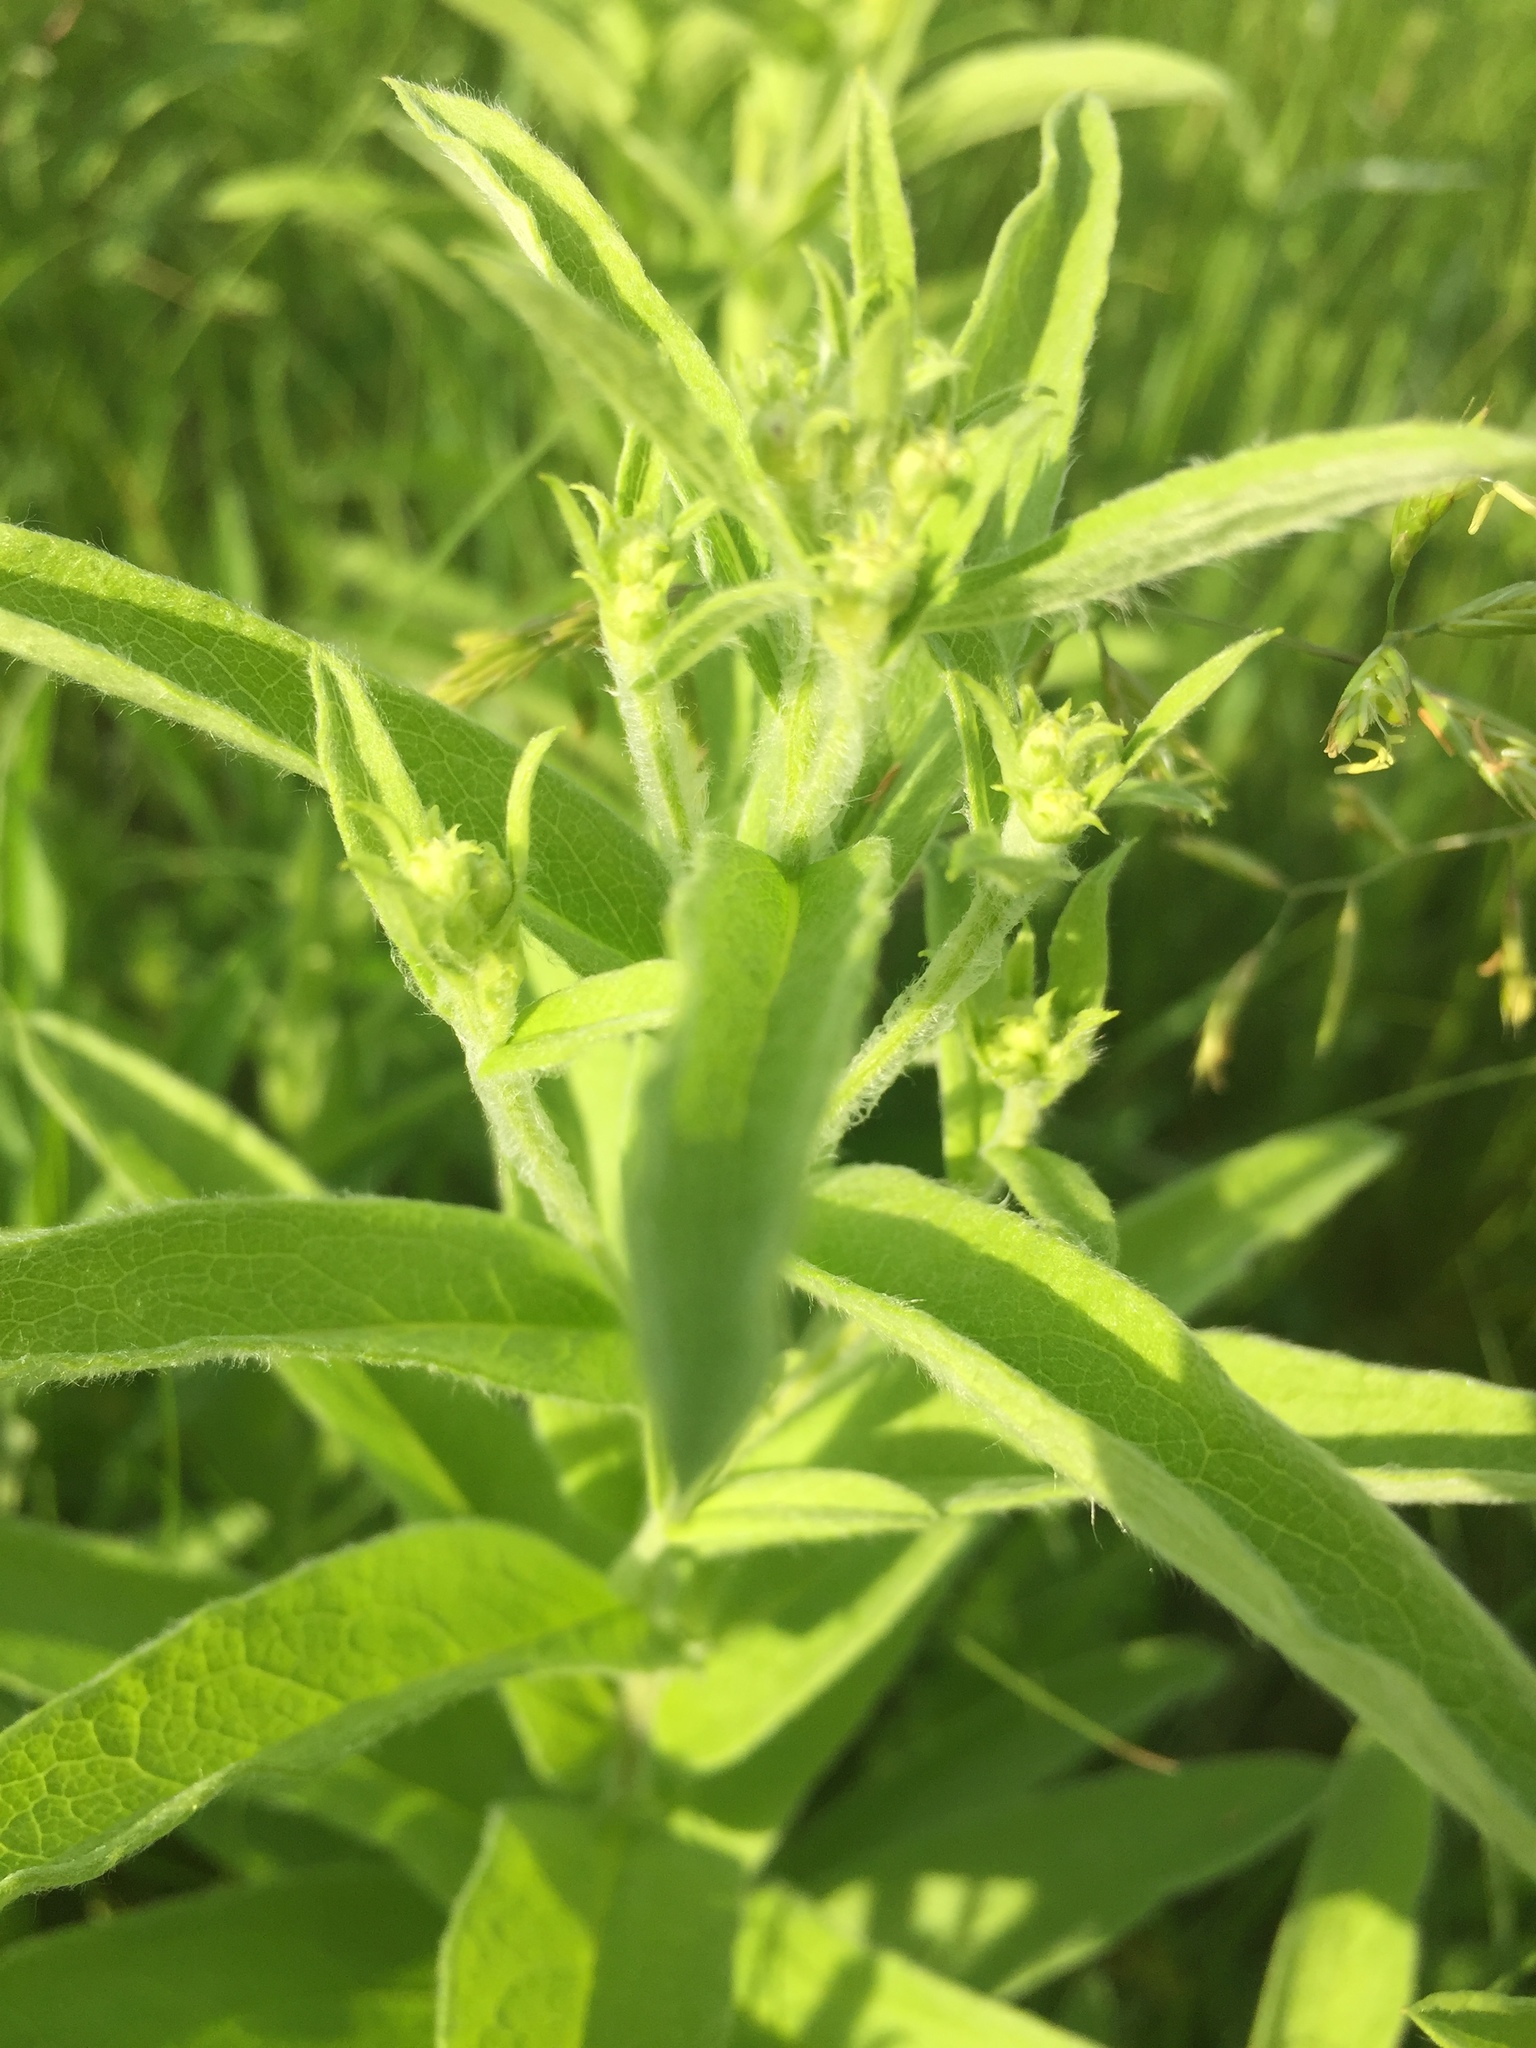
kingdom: Plantae
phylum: Tracheophyta
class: Magnoliopsida
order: Asterales
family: Asteraceae
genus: Pentanema
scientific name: Pentanema salicinum
